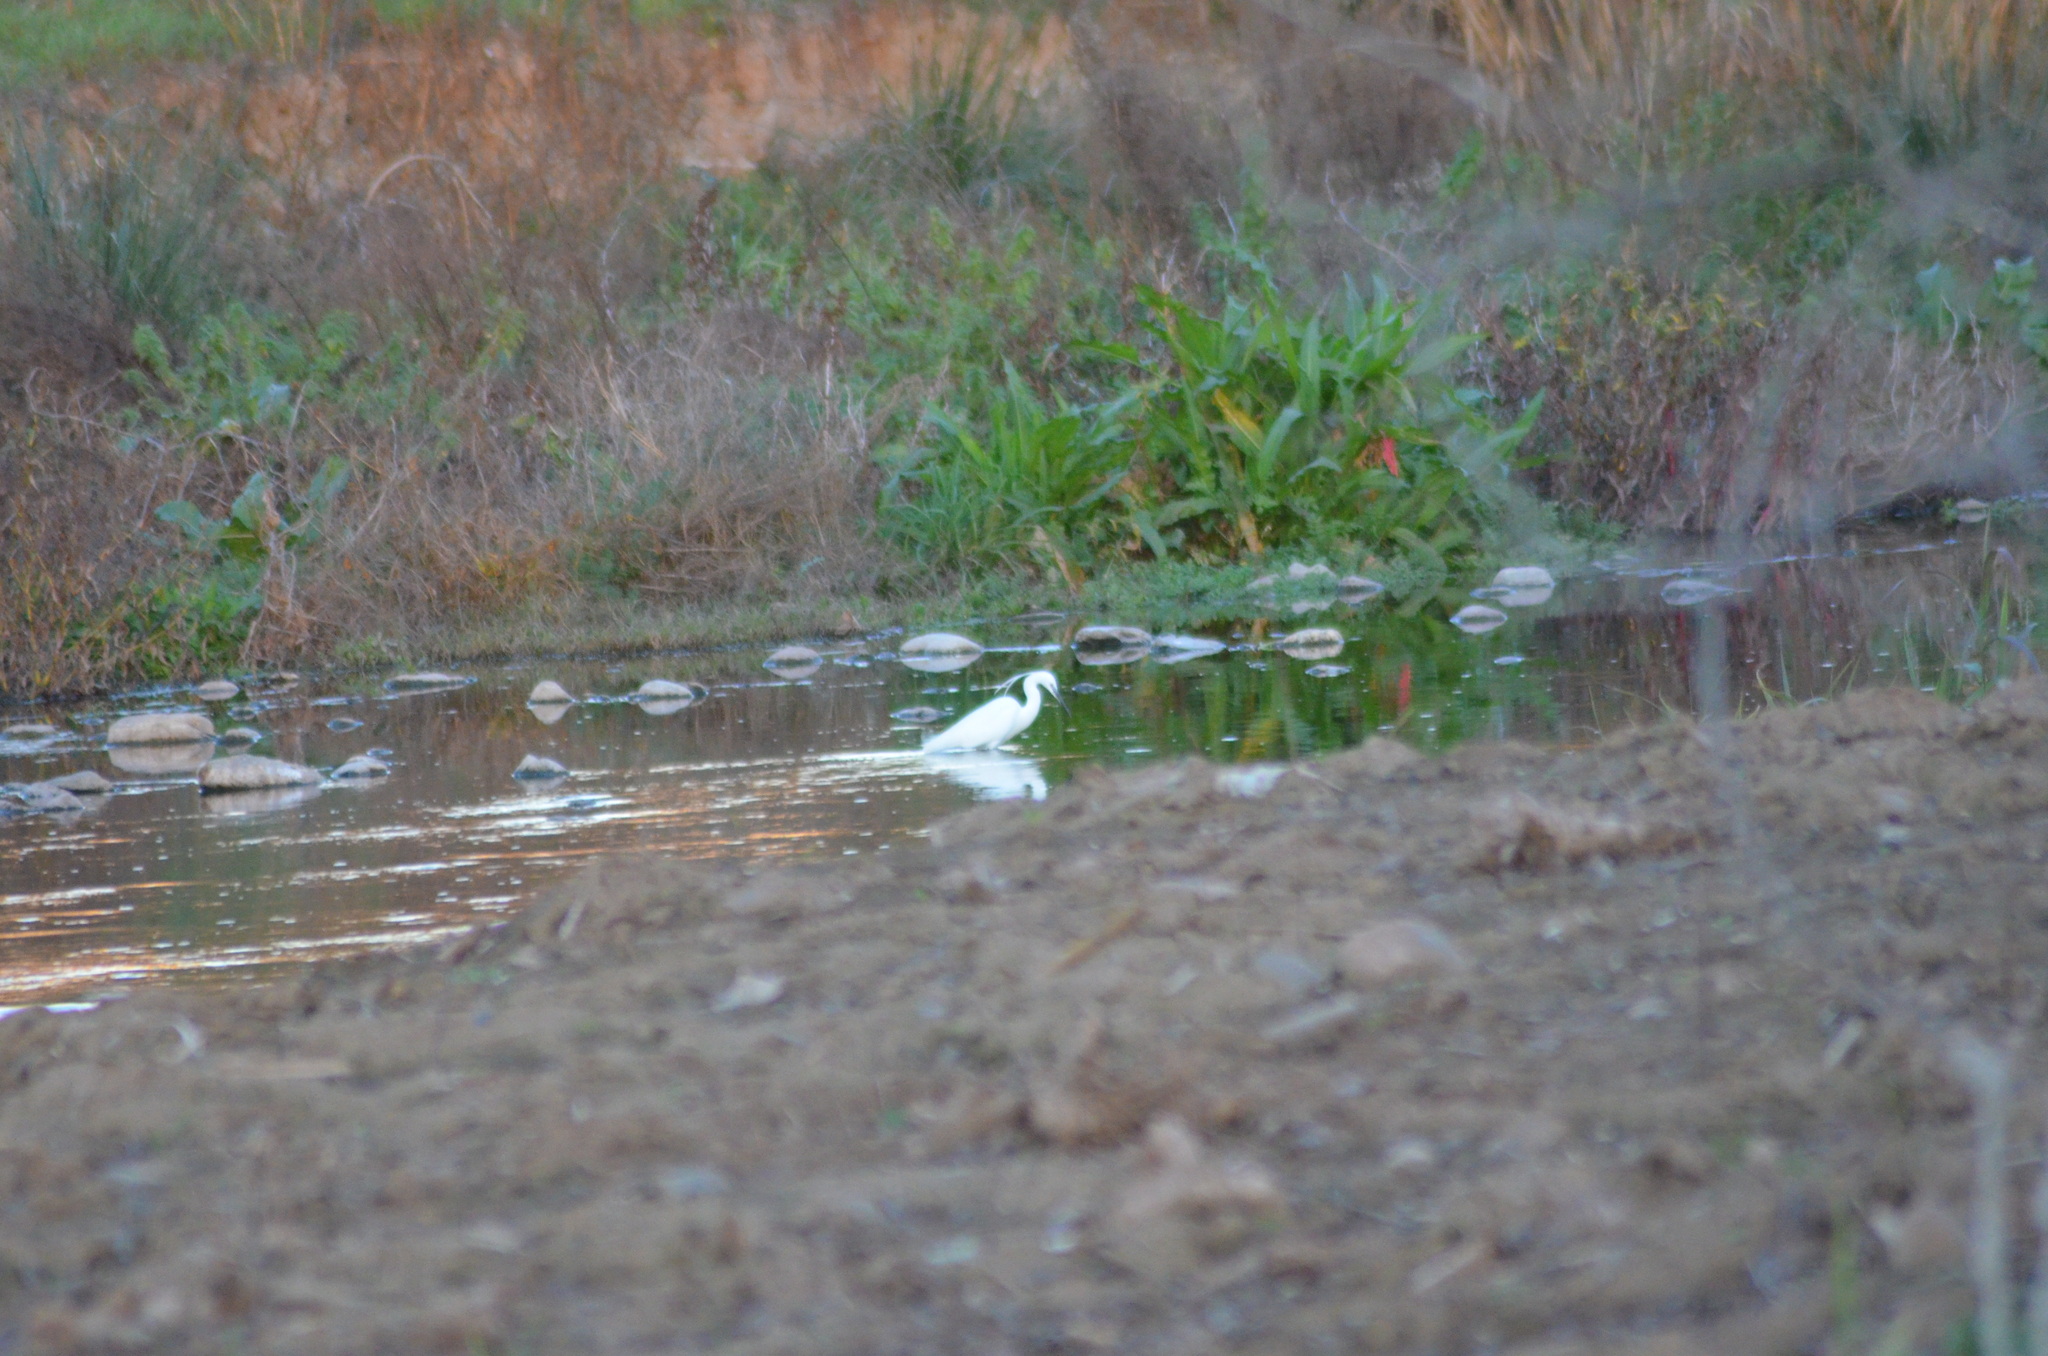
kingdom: Animalia
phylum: Chordata
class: Aves
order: Pelecaniformes
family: Ardeidae
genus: Egretta
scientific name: Egretta garzetta
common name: Little egret
